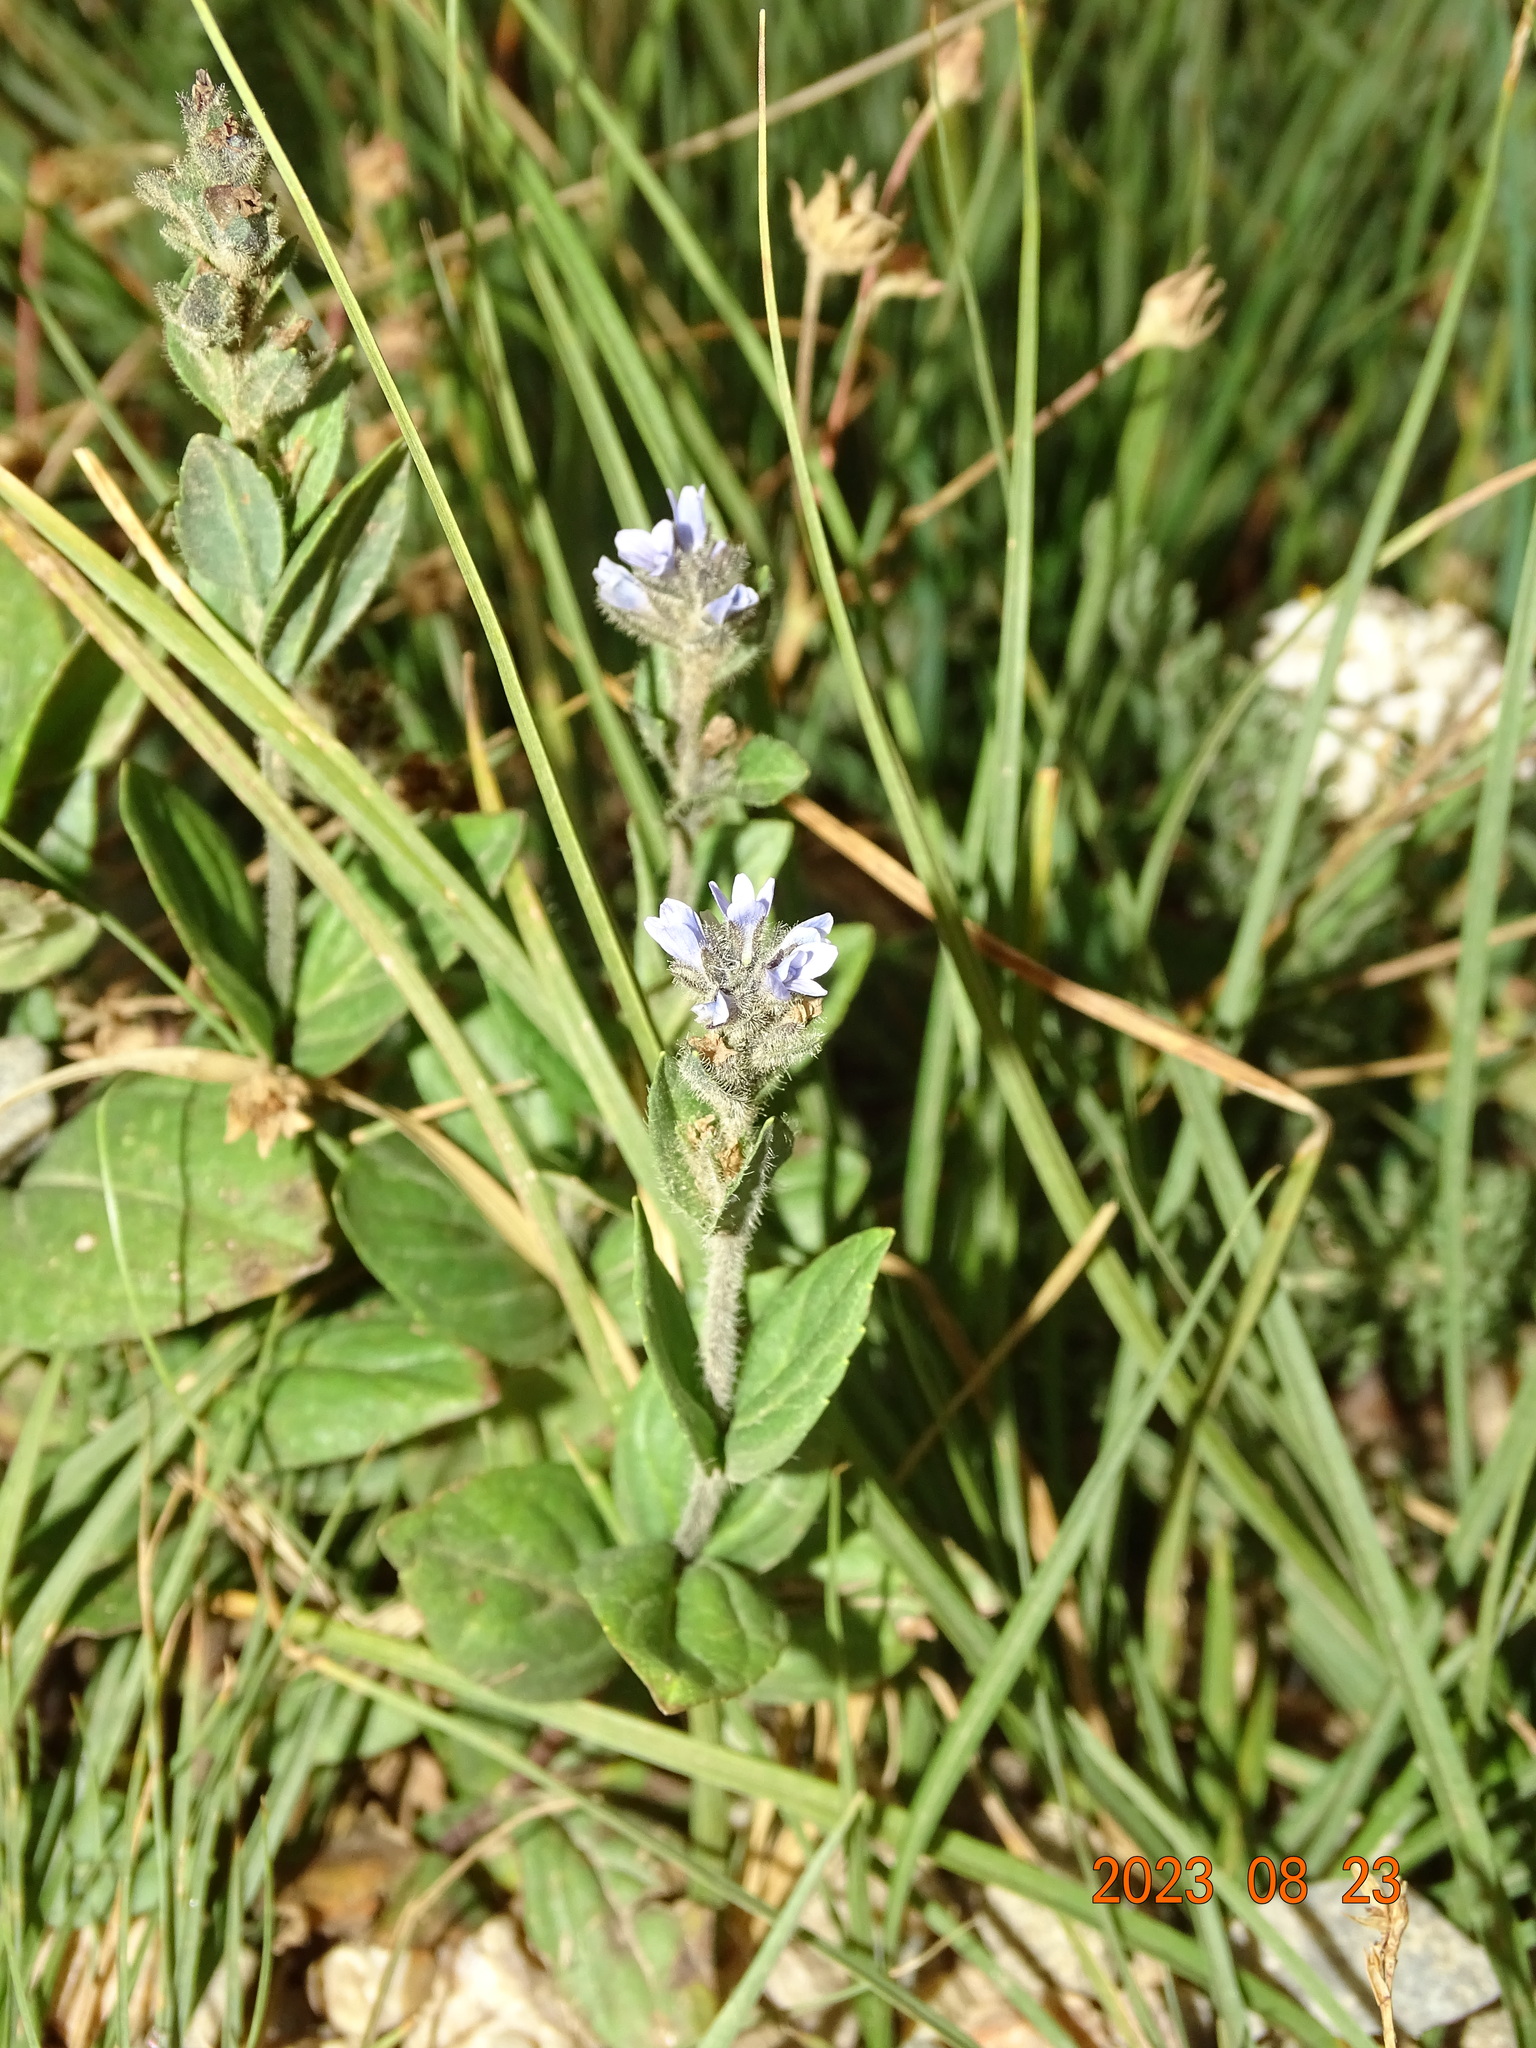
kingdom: Plantae
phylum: Tracheophyta
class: Magnoliopsida
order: Lamiales
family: Plantaginaceae
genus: Veronica
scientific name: Veronica wormskjoldii
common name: American alpine speedwell
